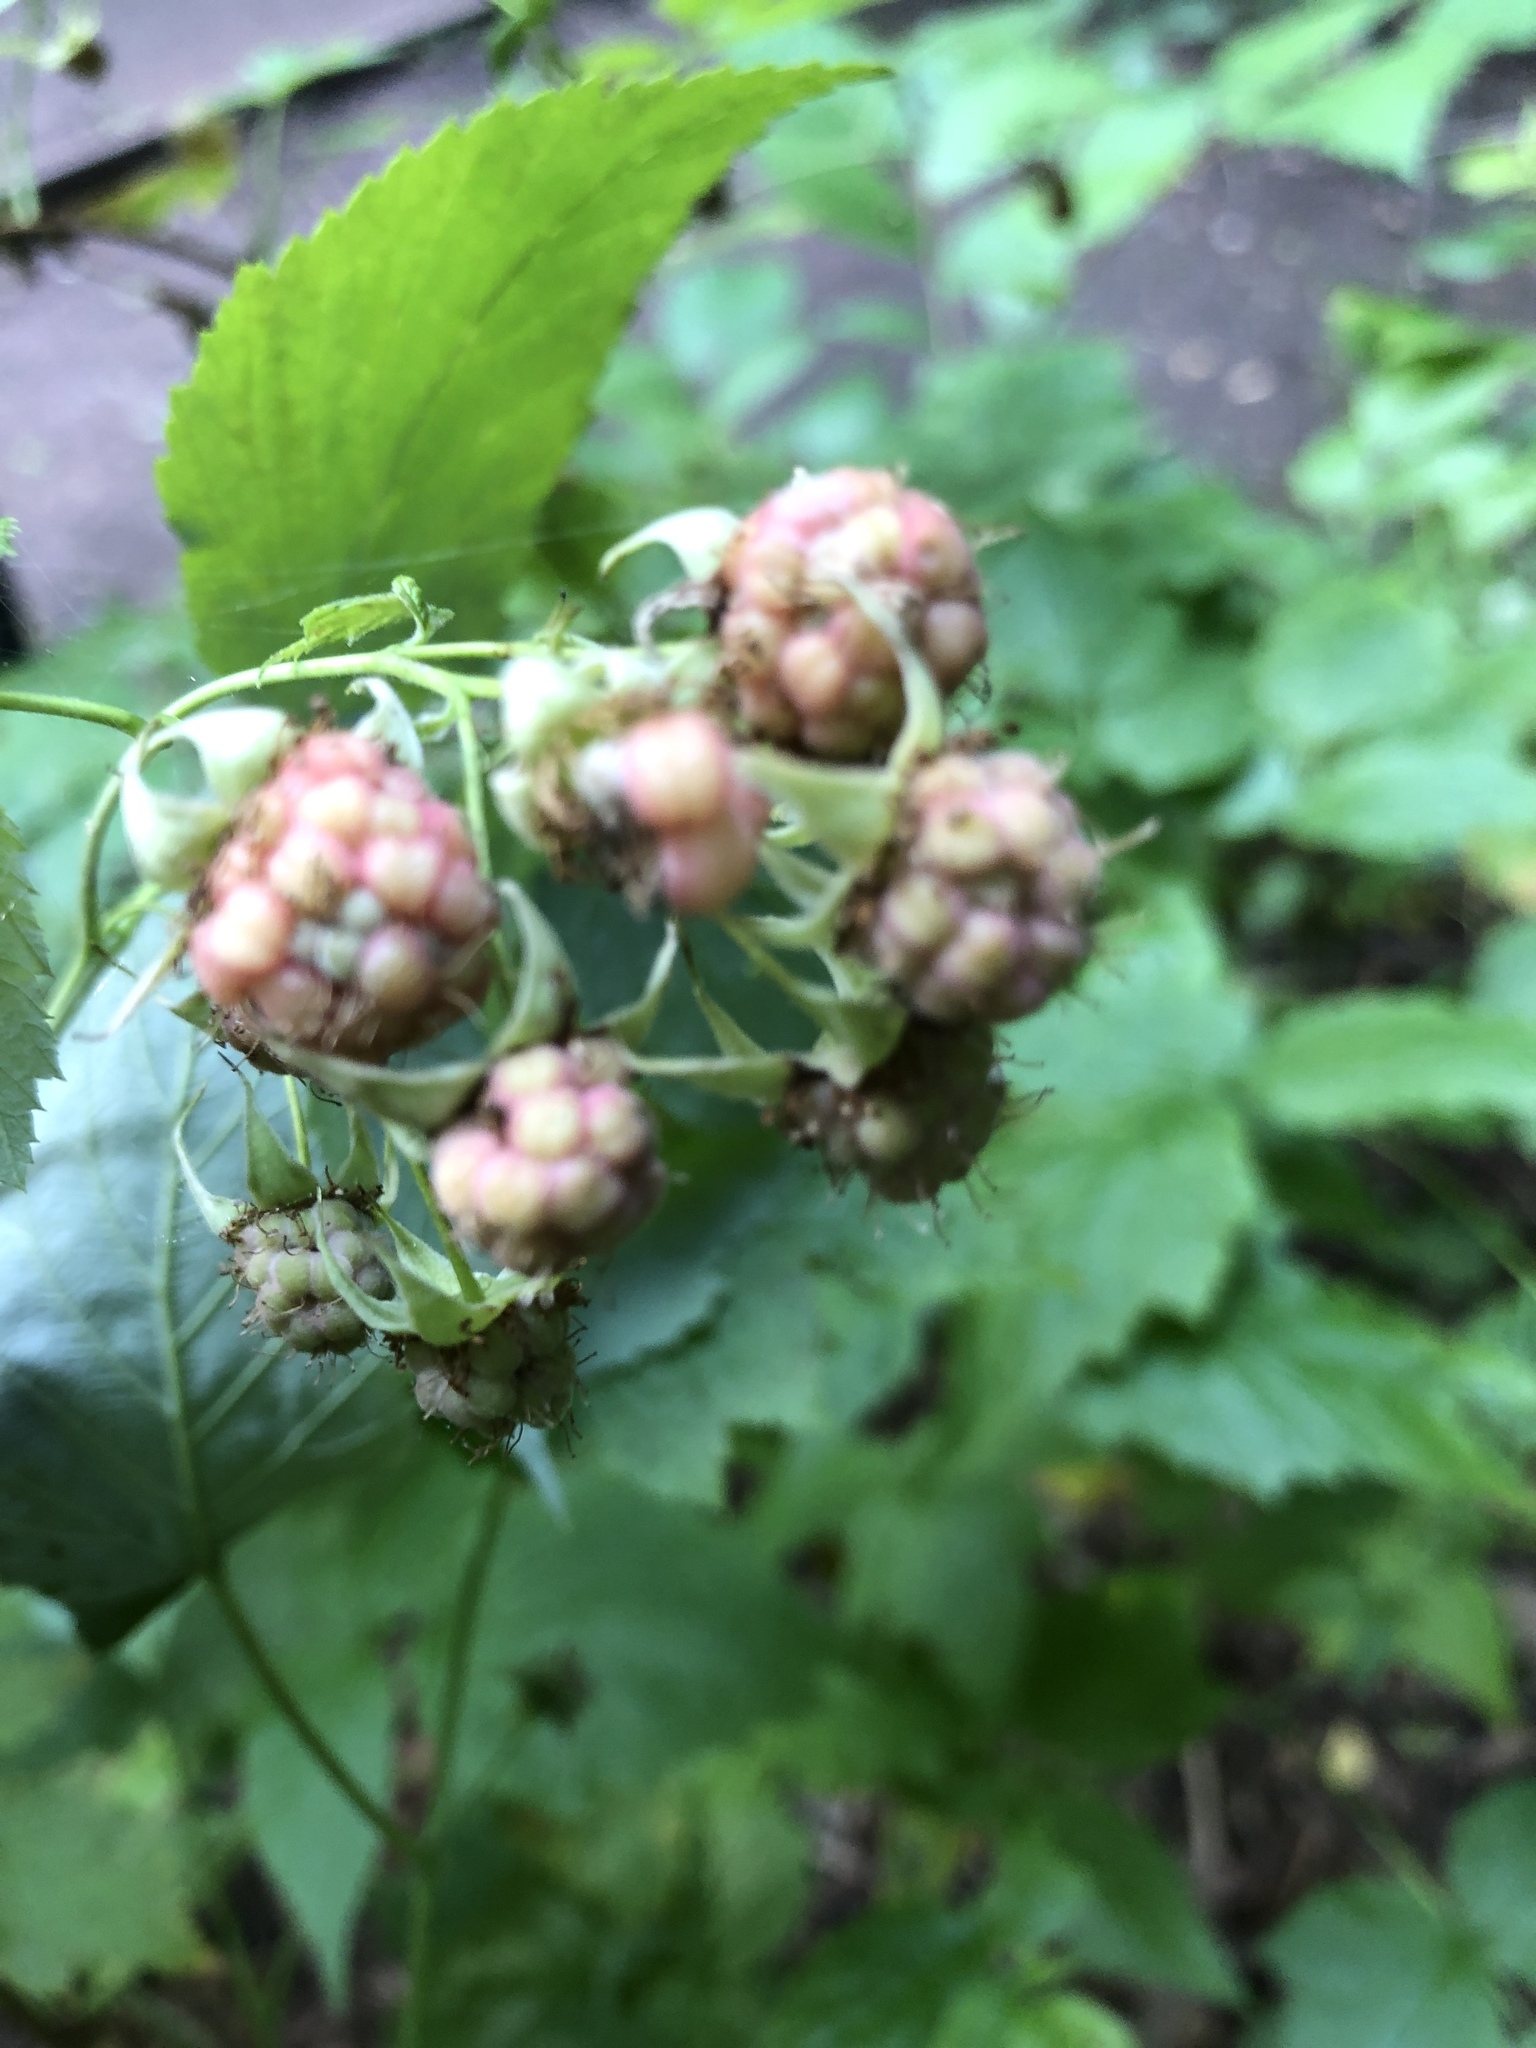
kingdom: Plantae
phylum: Tracheophyta
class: Magnoliopsida
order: Rosales
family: Rosaceae
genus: Rubus
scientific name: Rubus idaeus
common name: Raspberry
